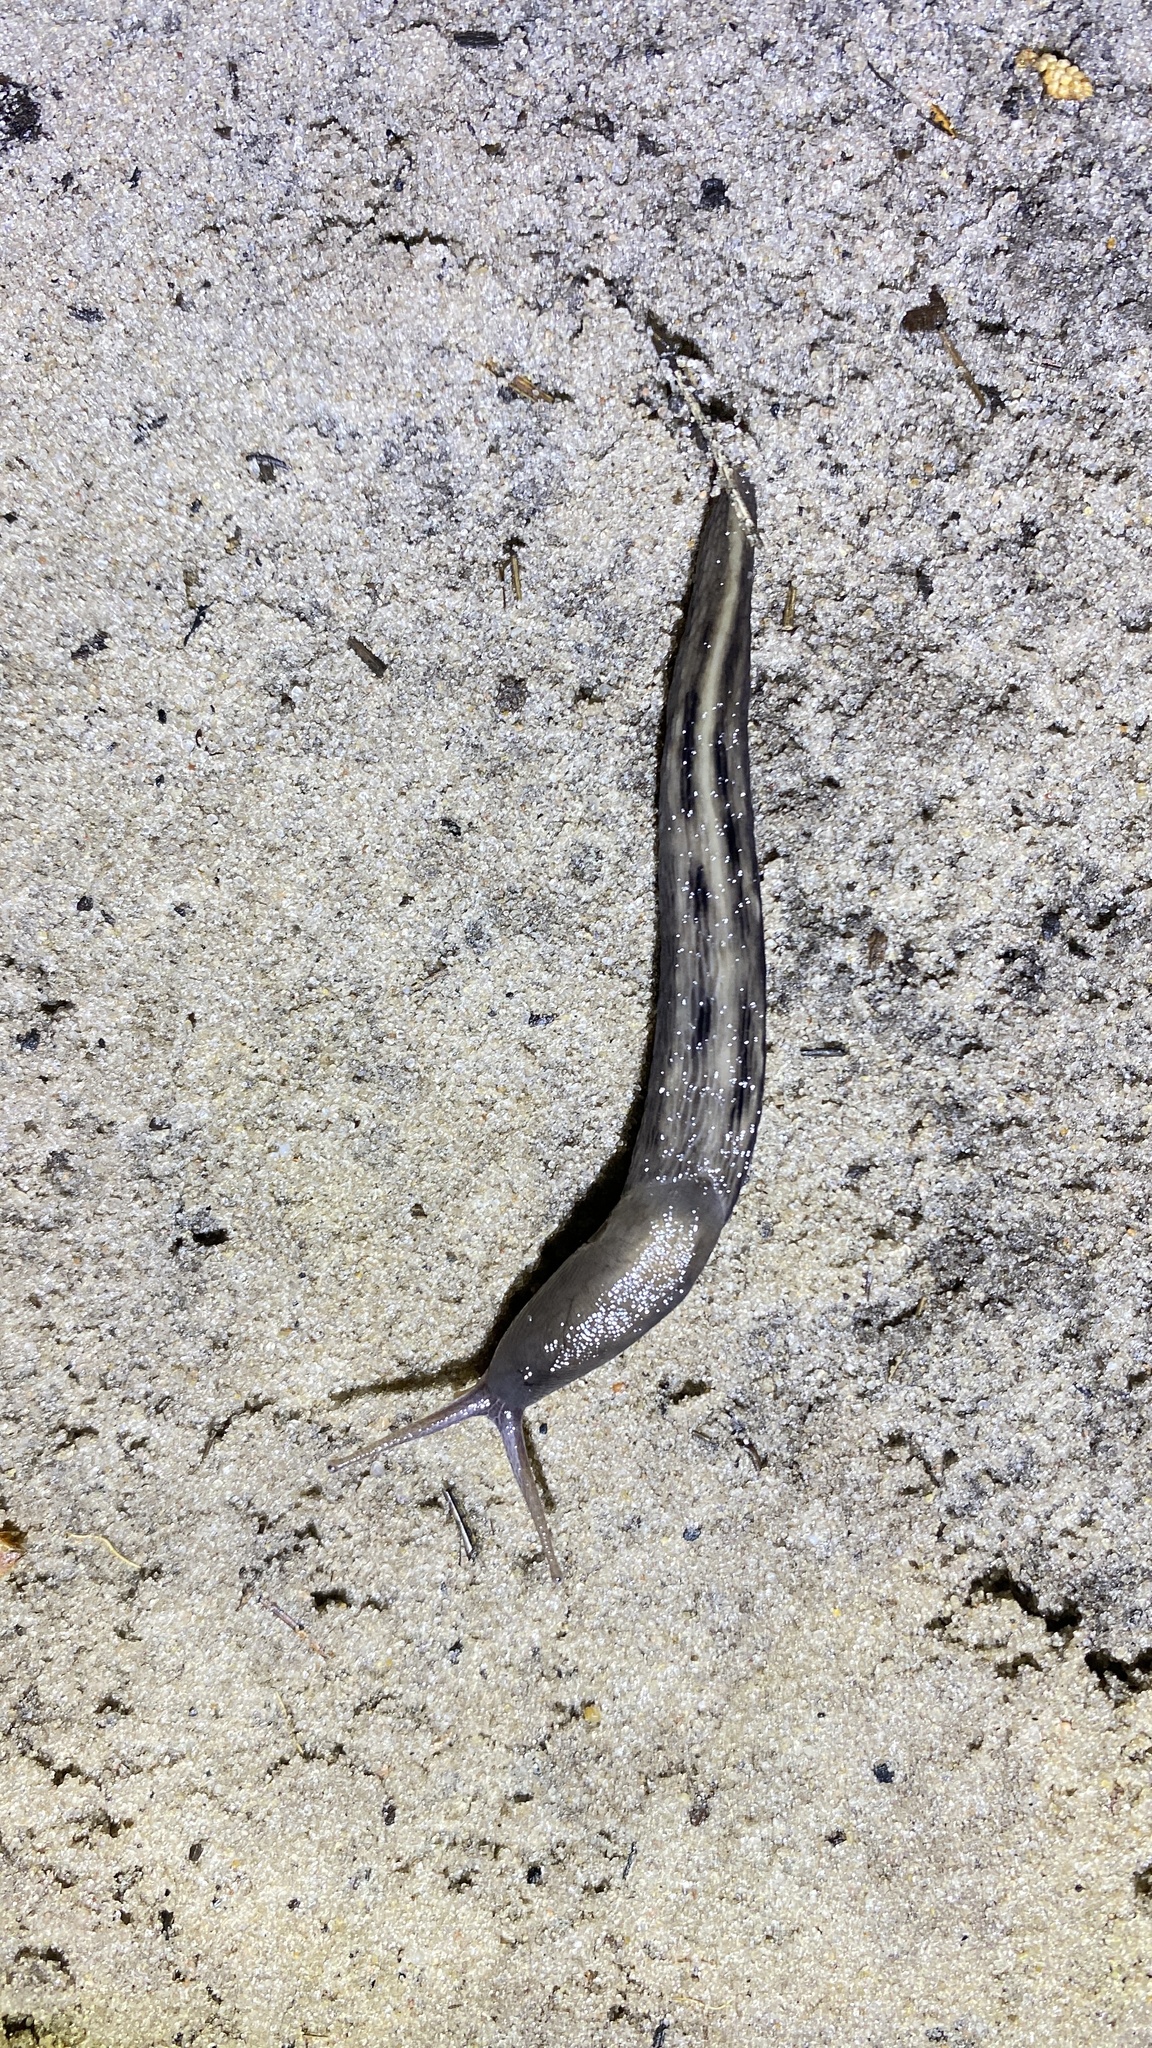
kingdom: Animalia
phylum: Mollusca
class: Gastropoda
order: Stylommatophora
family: Limacidae
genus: Limax
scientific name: Limax cinereoniger
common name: Ash-black slug
